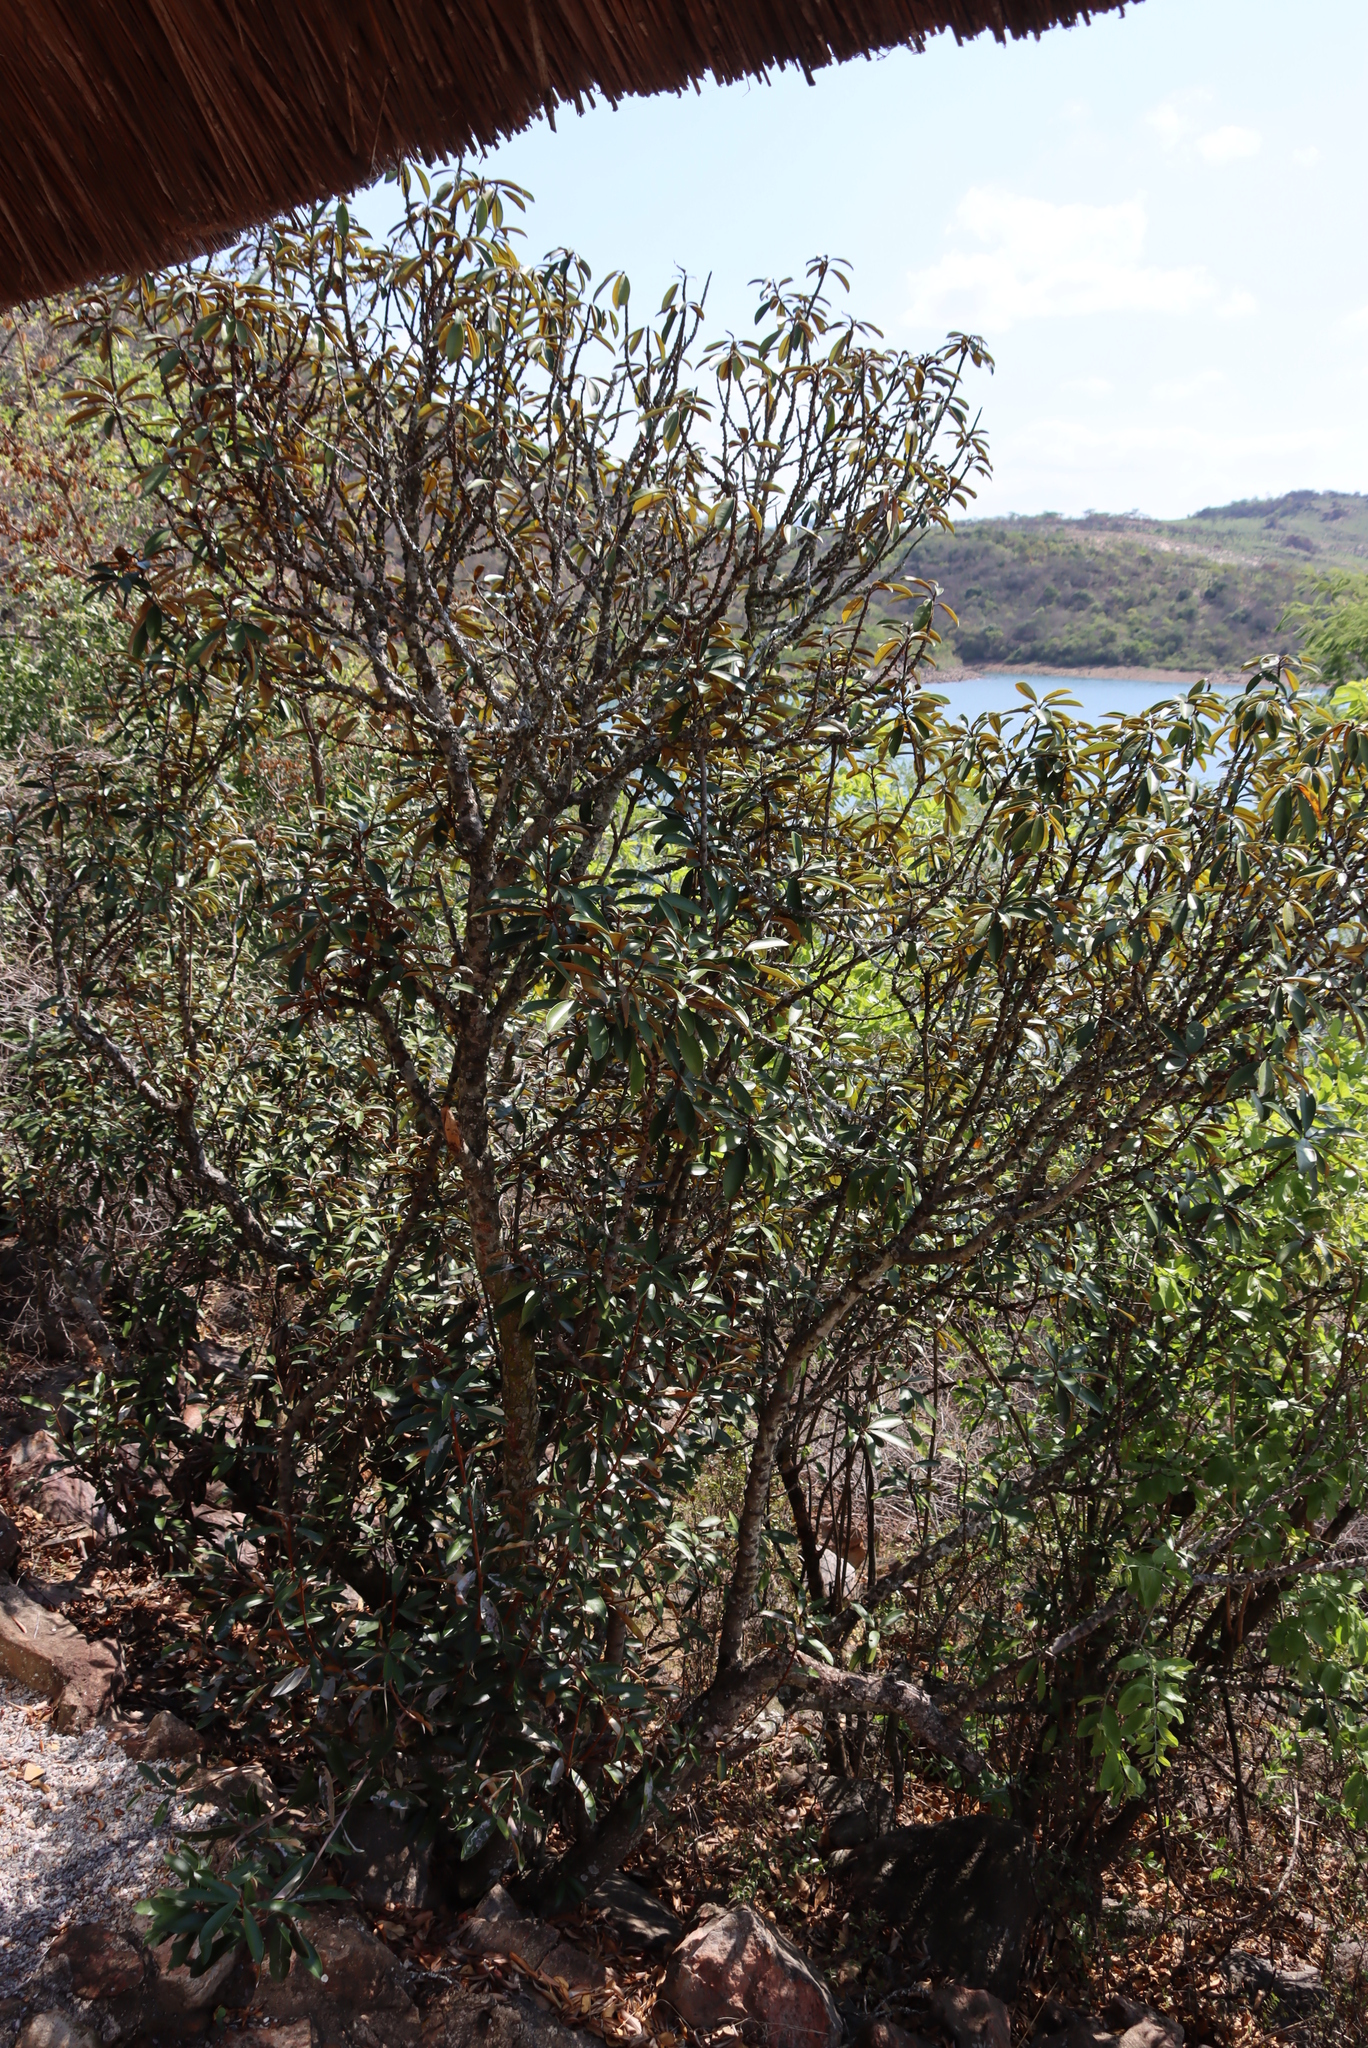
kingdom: Plantae
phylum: Tracheophyta
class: Magnoliopsida
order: Ericales
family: Sapotaceae
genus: Englerophytum
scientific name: Englerophytum magalismontanum
